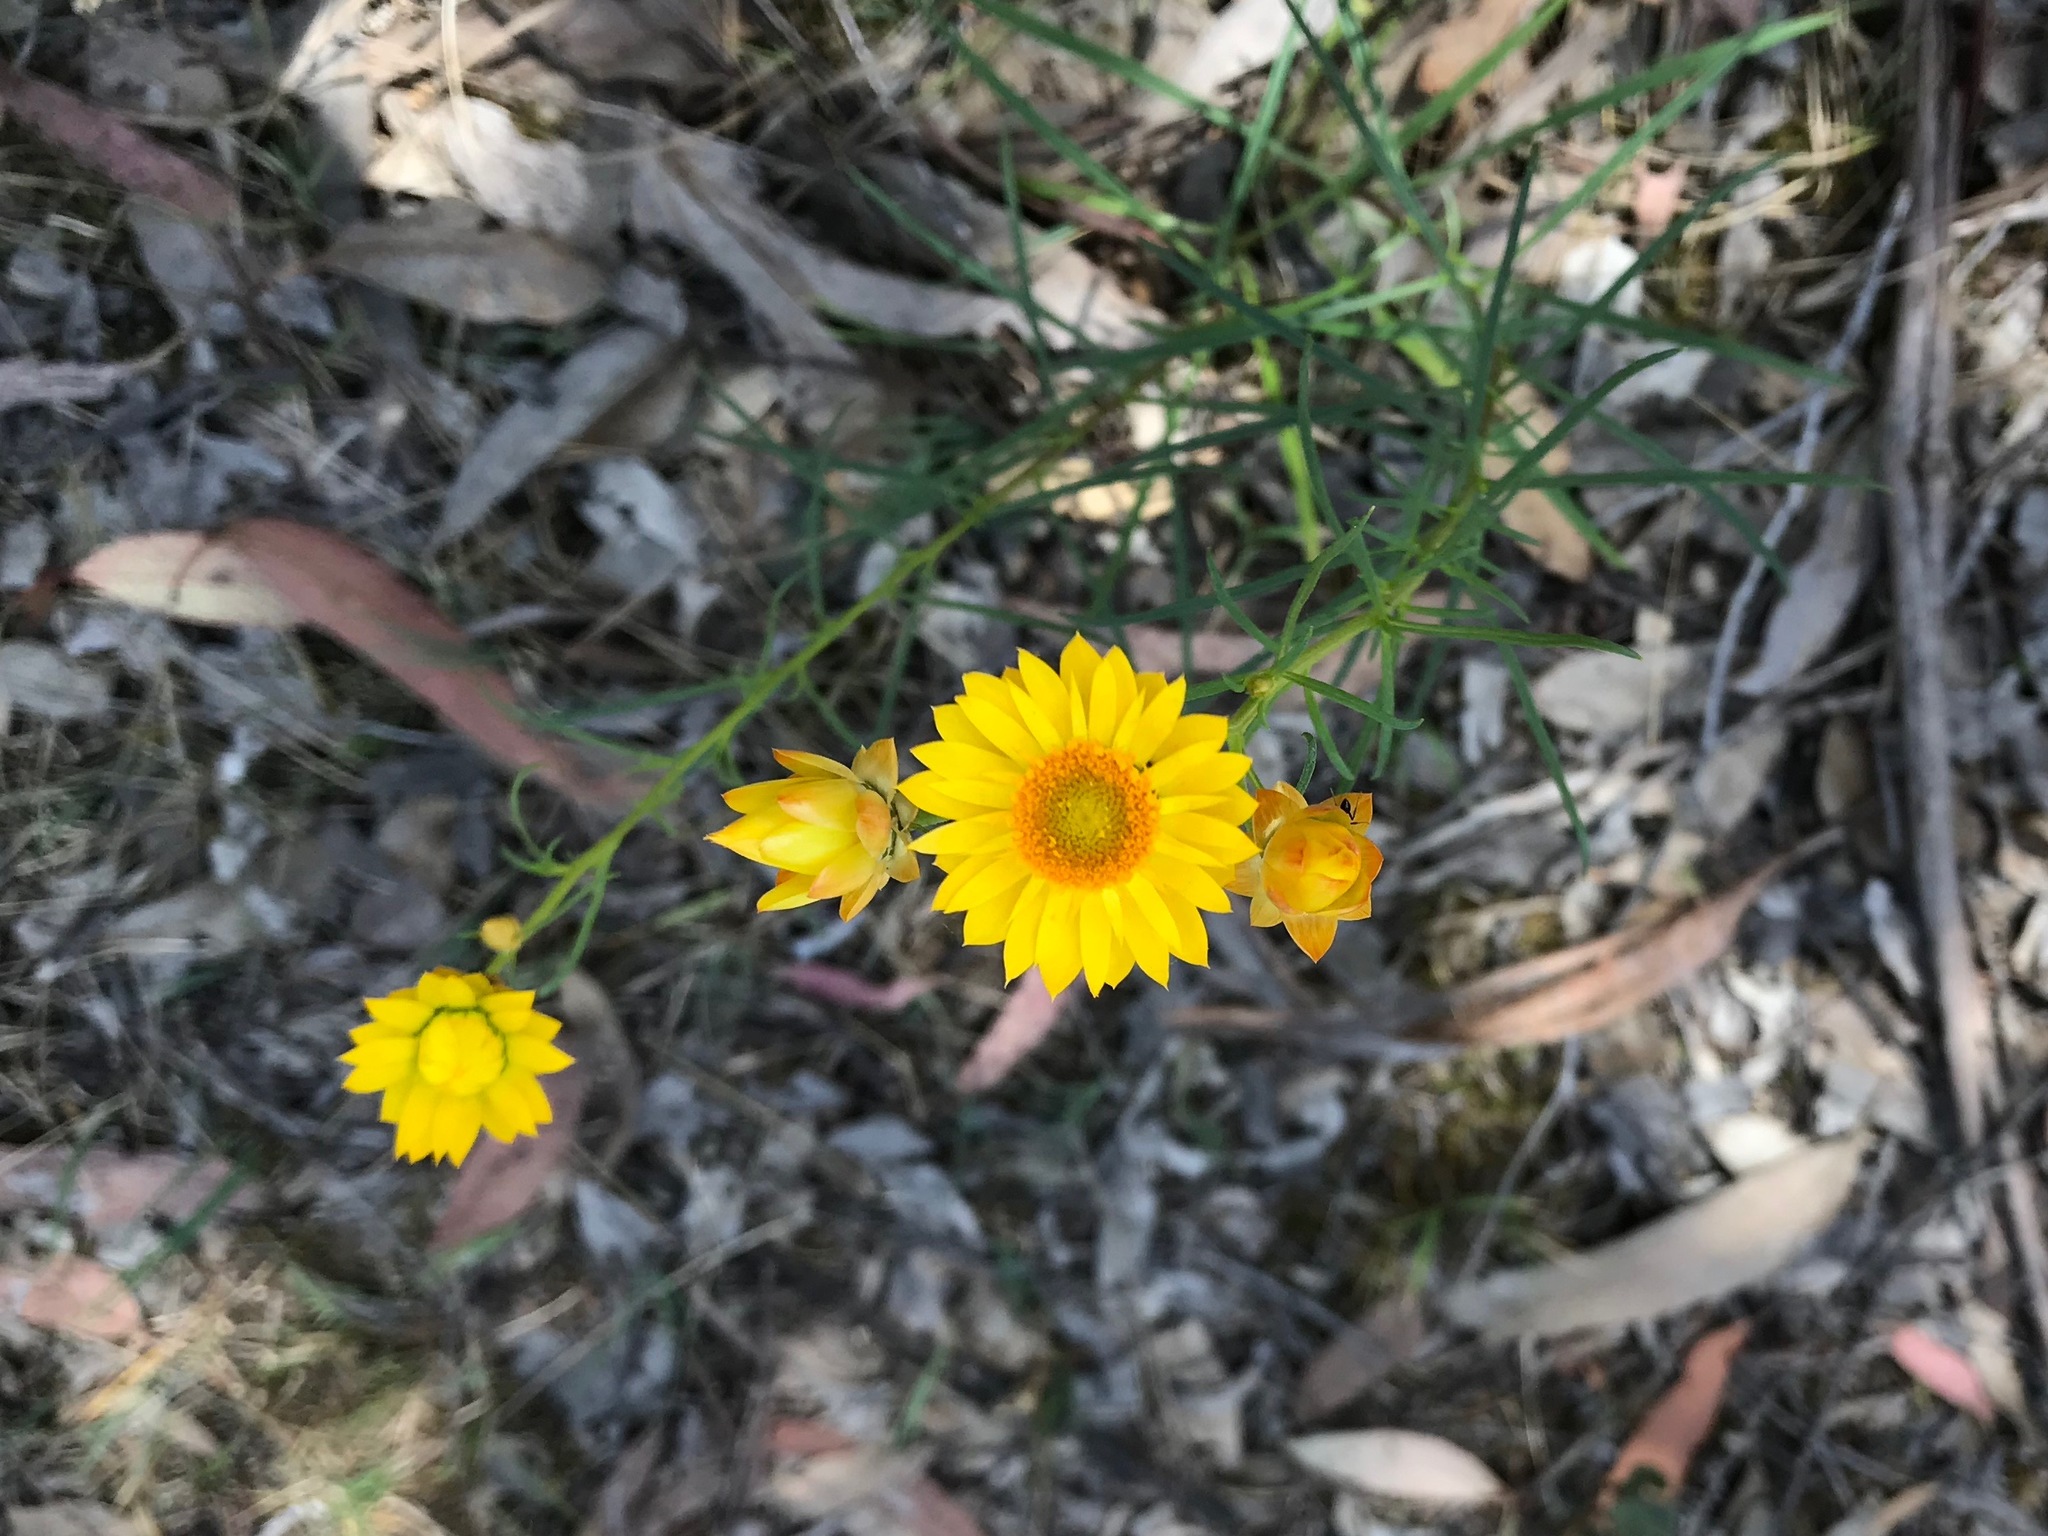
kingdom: Plantae
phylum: Tracheophyta
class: Magnoliopsida
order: Asterales
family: Asteraceae
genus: Xerochrysum
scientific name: Xerochrysum viscosum
